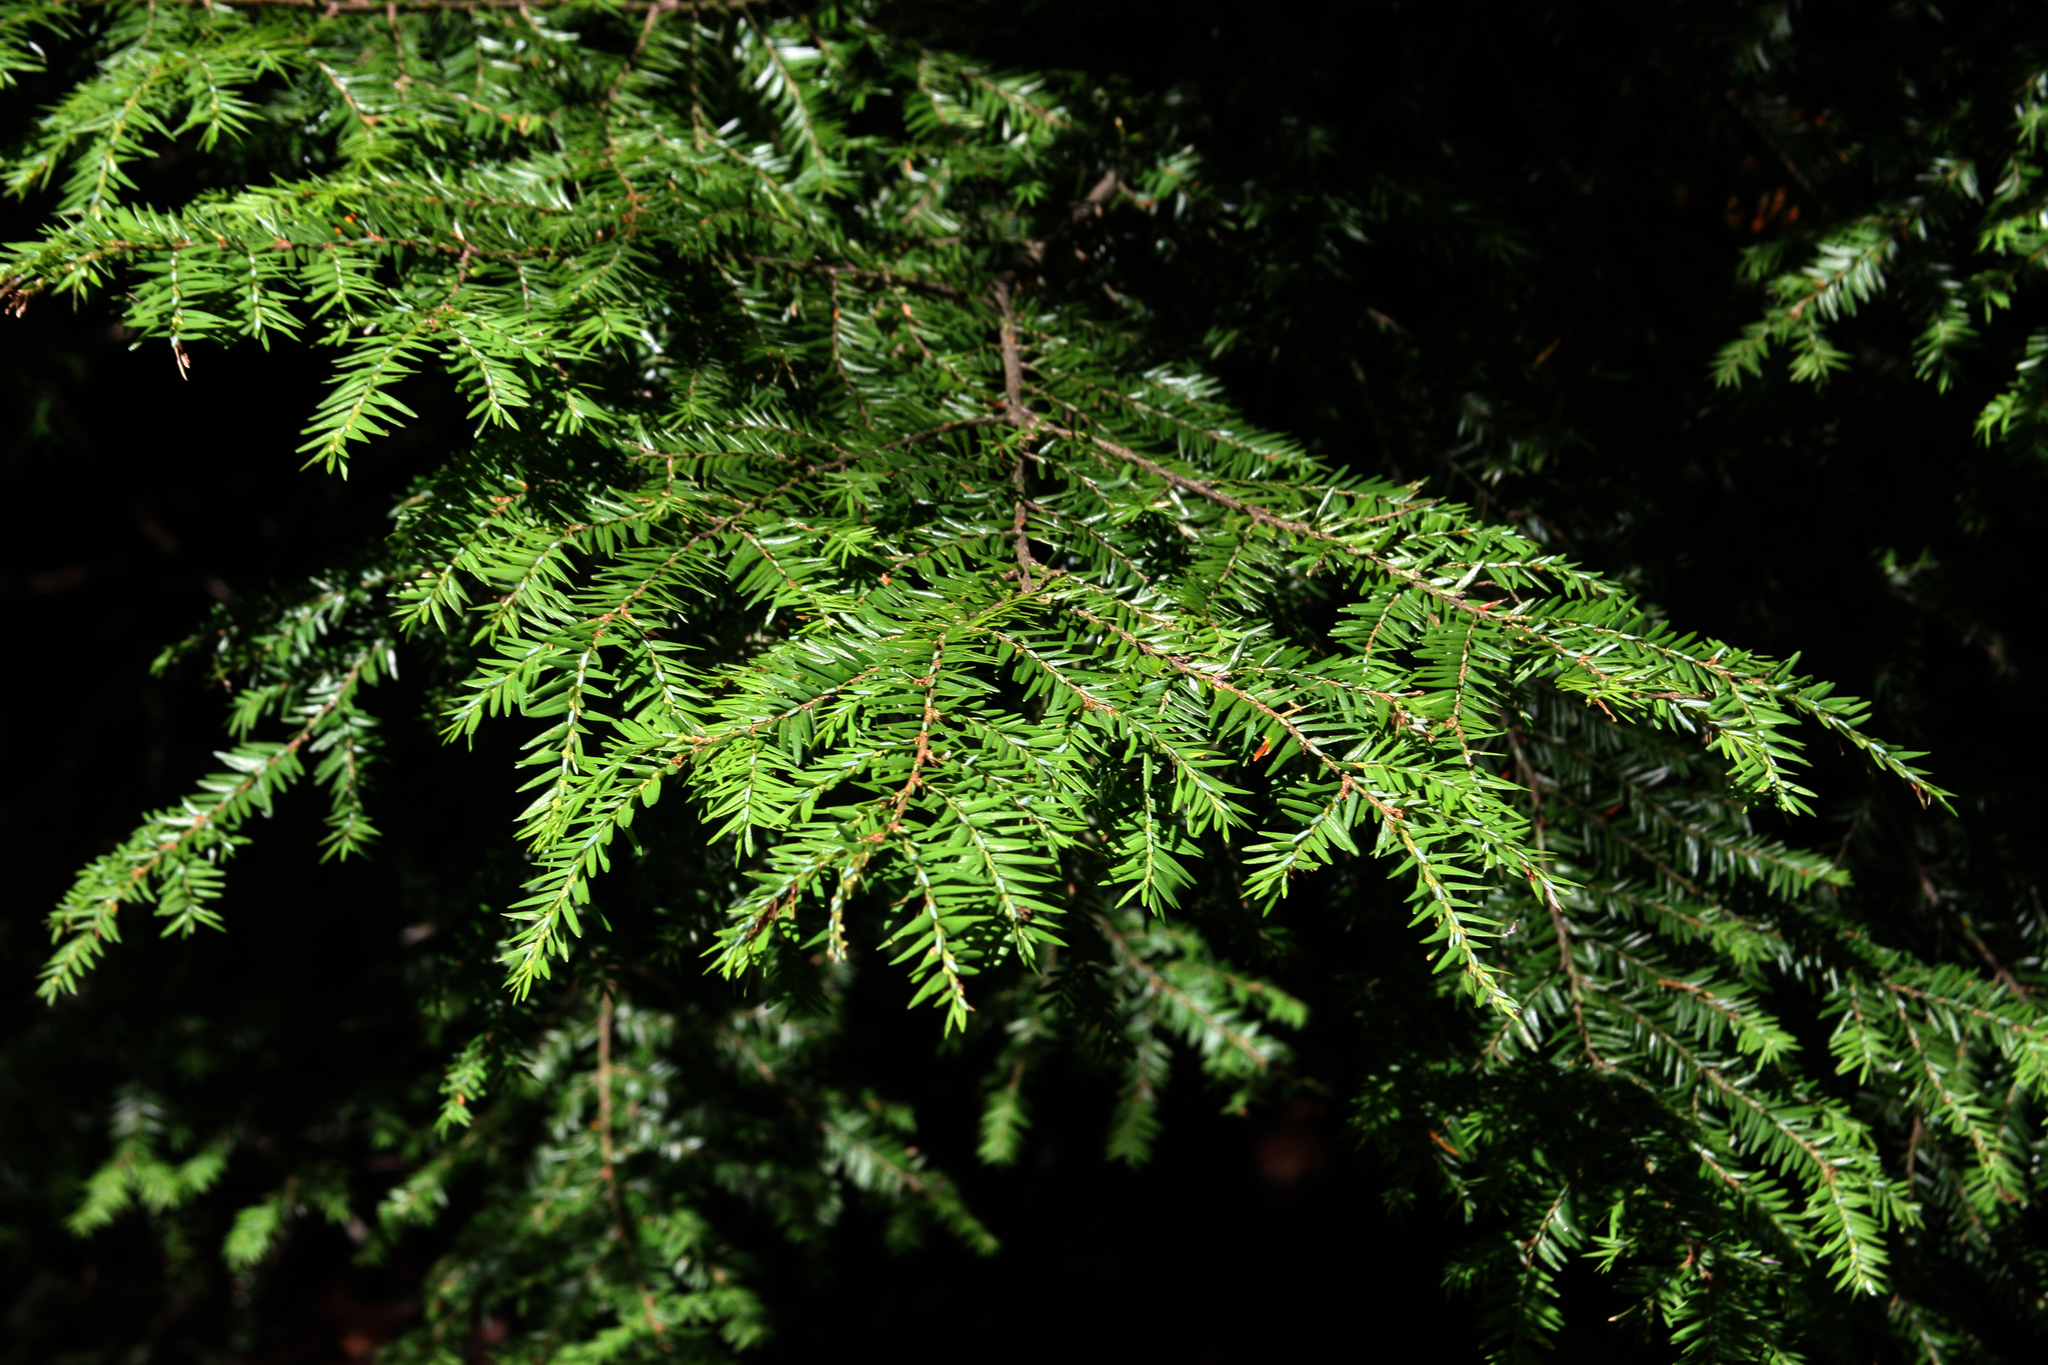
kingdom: Plantae
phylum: Tracheophyta
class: Pinopsida
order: Pinales
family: Pinaceae
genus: Tsuga
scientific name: Tsuga canadensis
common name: Eastern hemlock
